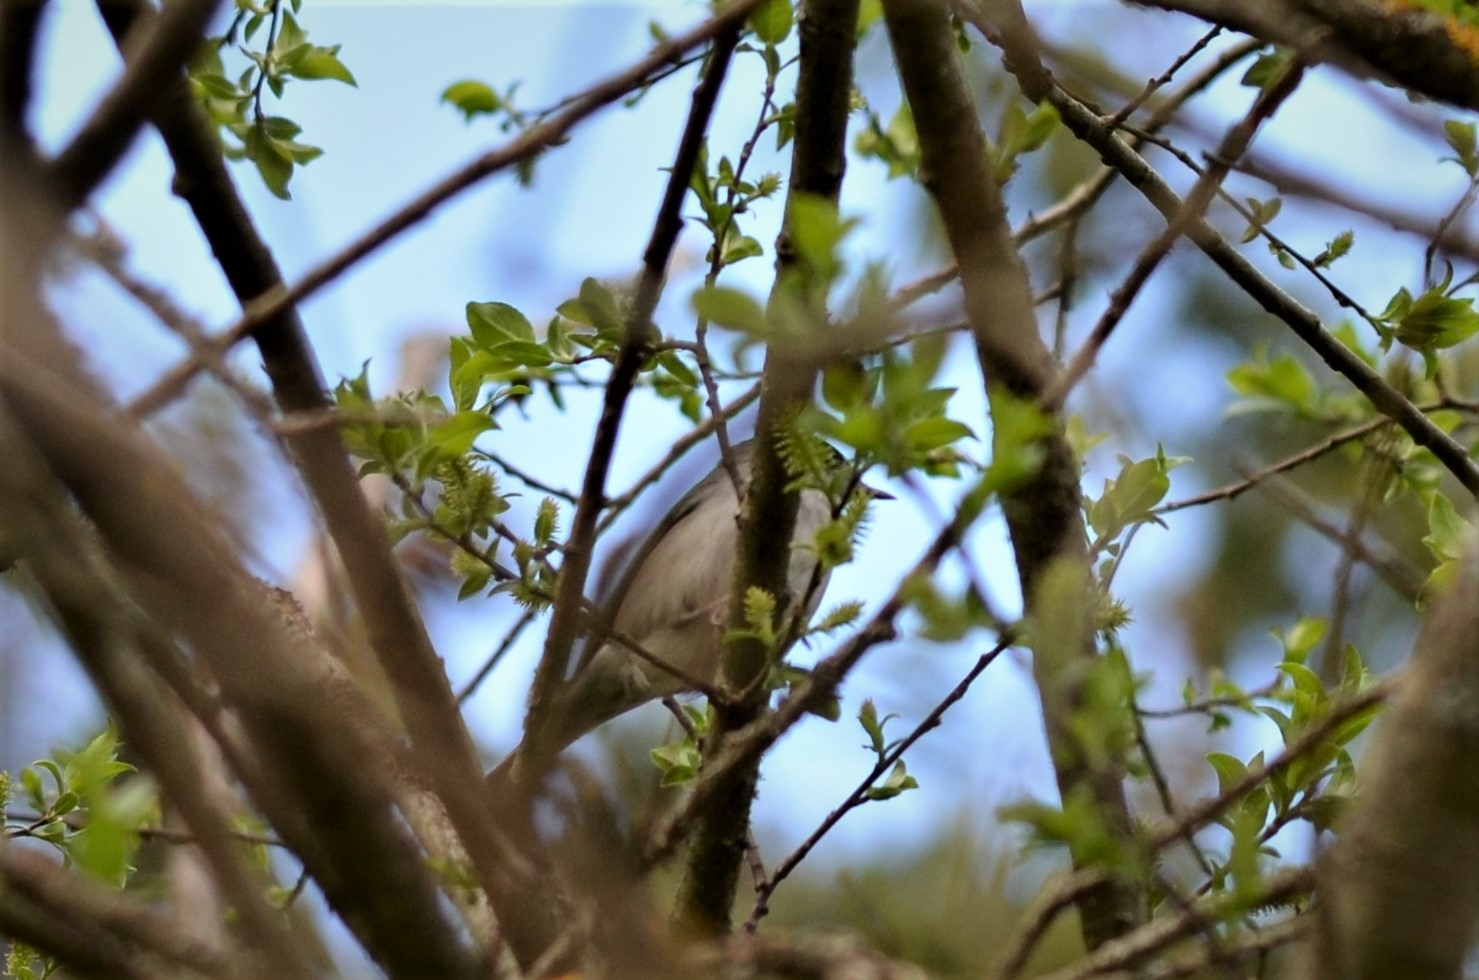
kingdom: Animalia
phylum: Chordata
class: Aves
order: Passeriformes
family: Sylviidae
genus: Sylvia
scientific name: Sylvia atricapilla
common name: Eurasian blackcap
